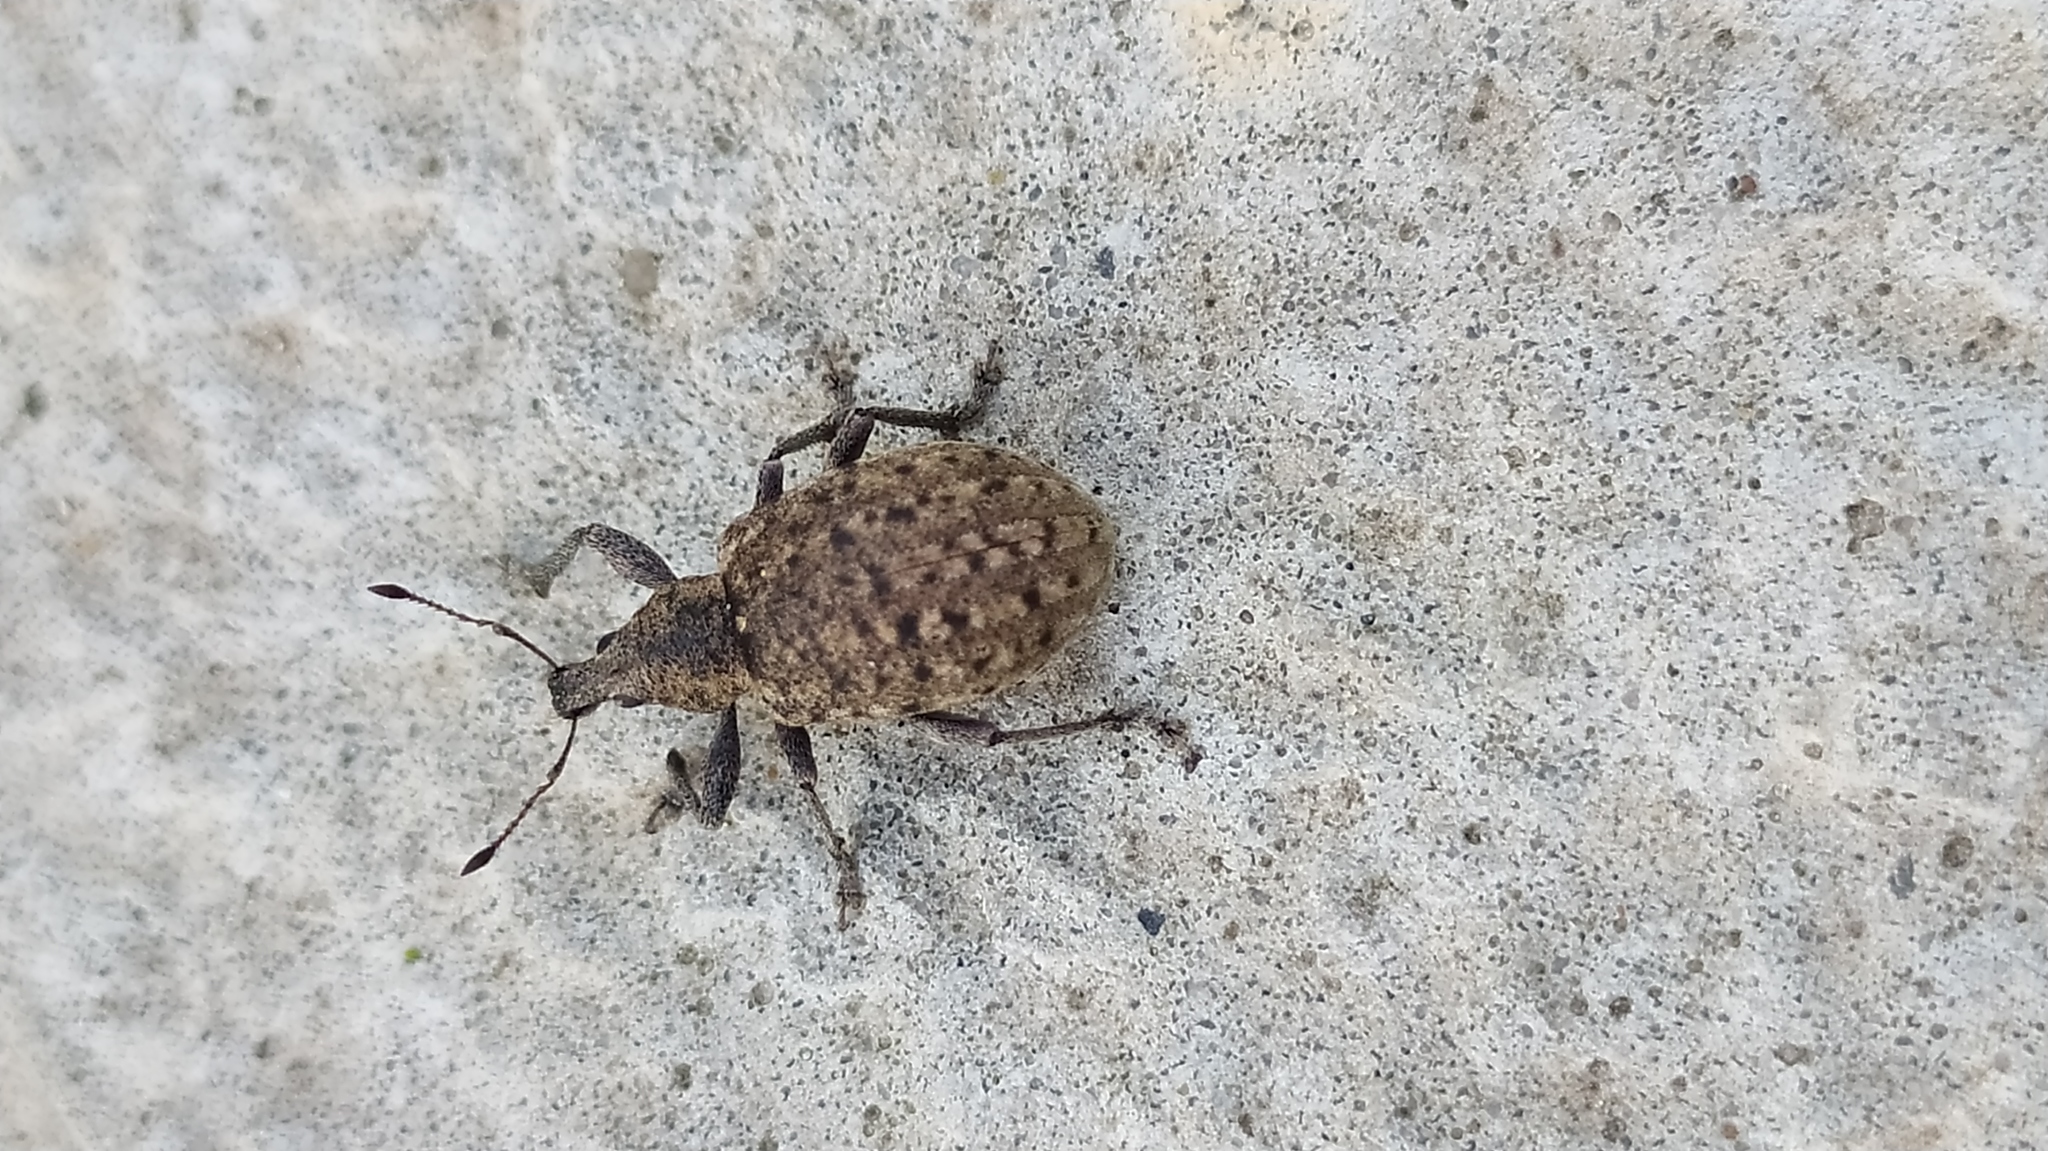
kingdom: Animalia
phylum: Arthropoda
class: Insecta
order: Coleoptera
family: Curculionidae
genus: Liophloeus
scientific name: Liophloeus tessulatus
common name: Weevil
